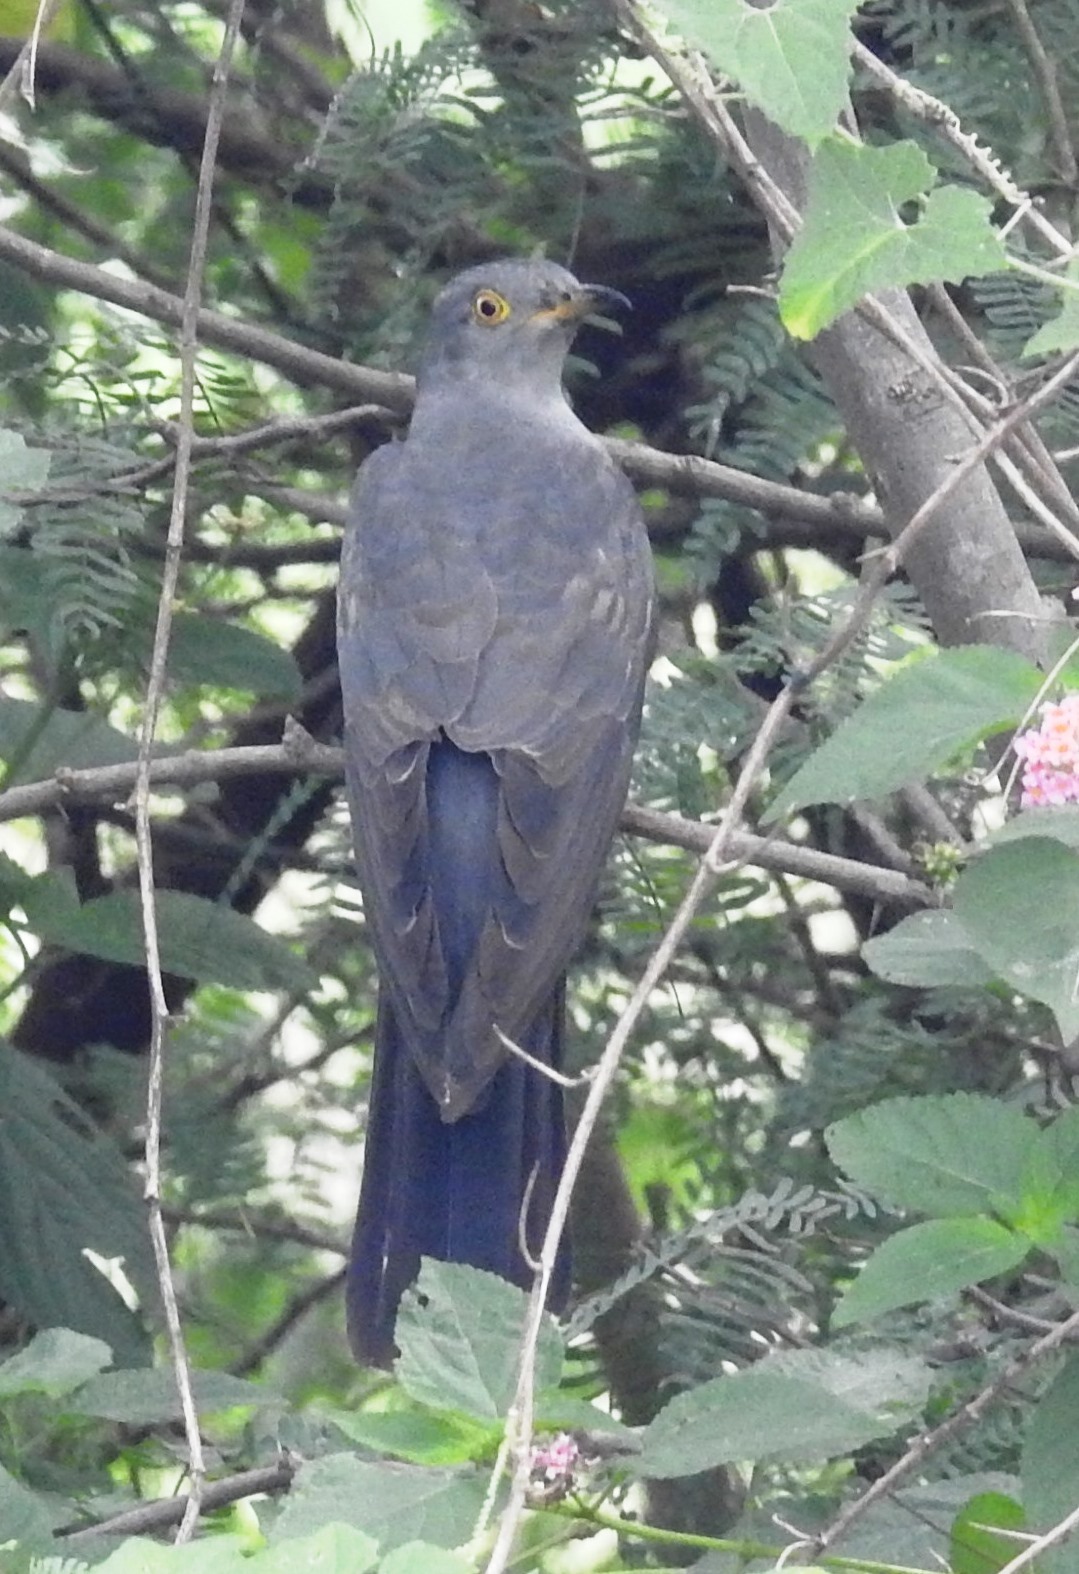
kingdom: Animalia
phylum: Chordata
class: Aves
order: Cuculiformes
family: Cuculidae
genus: Cuculus
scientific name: Cuculus canorus
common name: Common cuckoo
